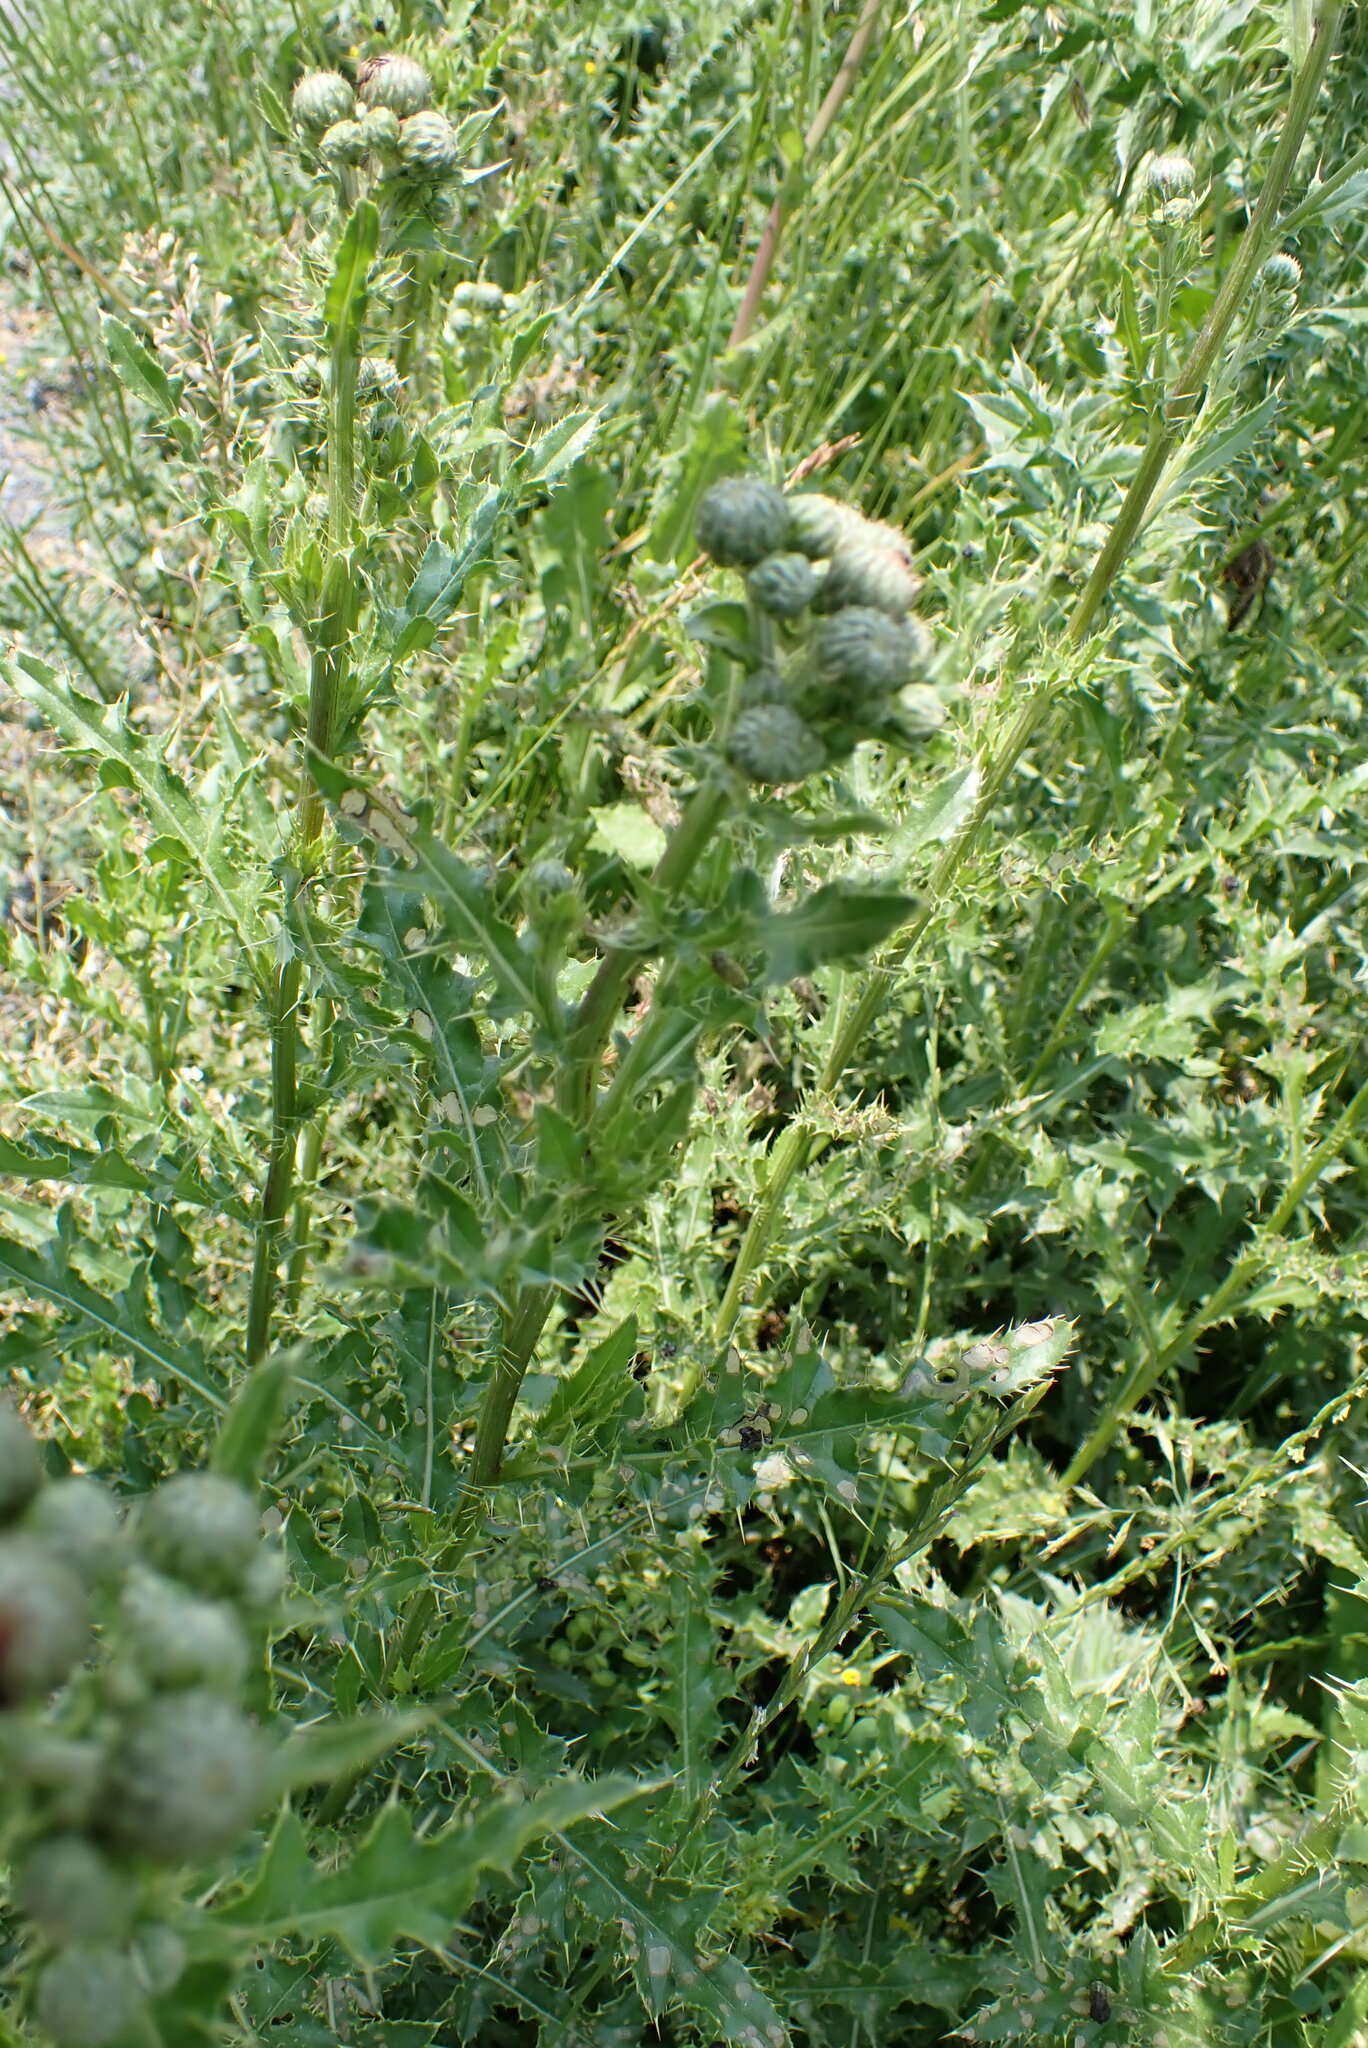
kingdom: Plantae
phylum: Tracheophyta
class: Magnoliopsida
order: Asterales
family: Asteraceae
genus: Cirsium
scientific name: Cirsium arvense
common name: Creeping thistle
